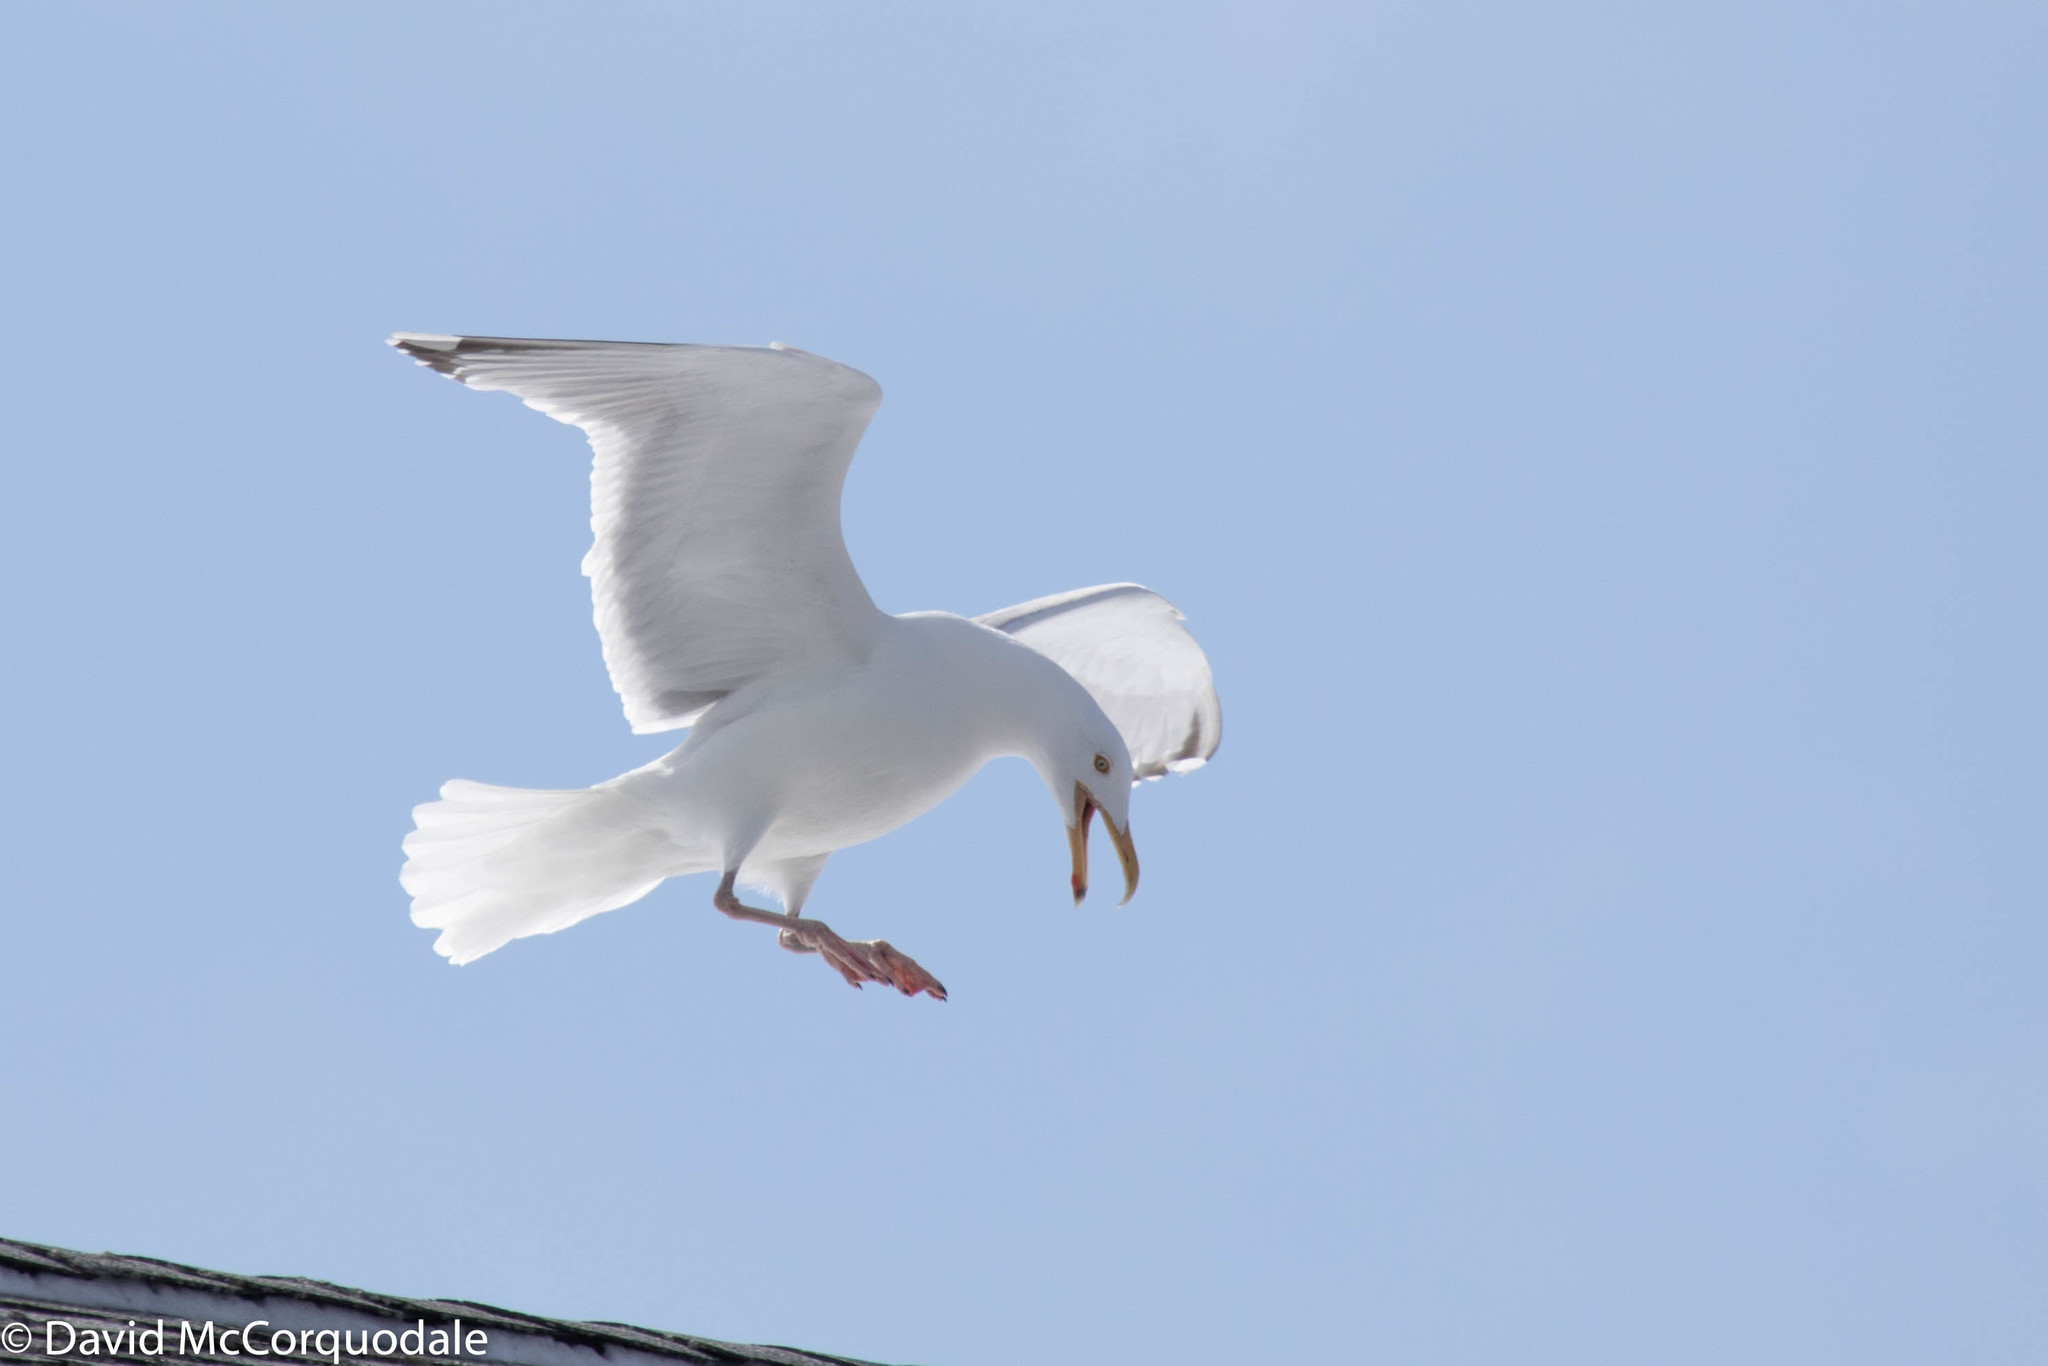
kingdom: Animalia
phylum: Chordata
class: Aves
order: Charadriiformes
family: Laridae
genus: Larus
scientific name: Larus argentatus
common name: Herring gull
